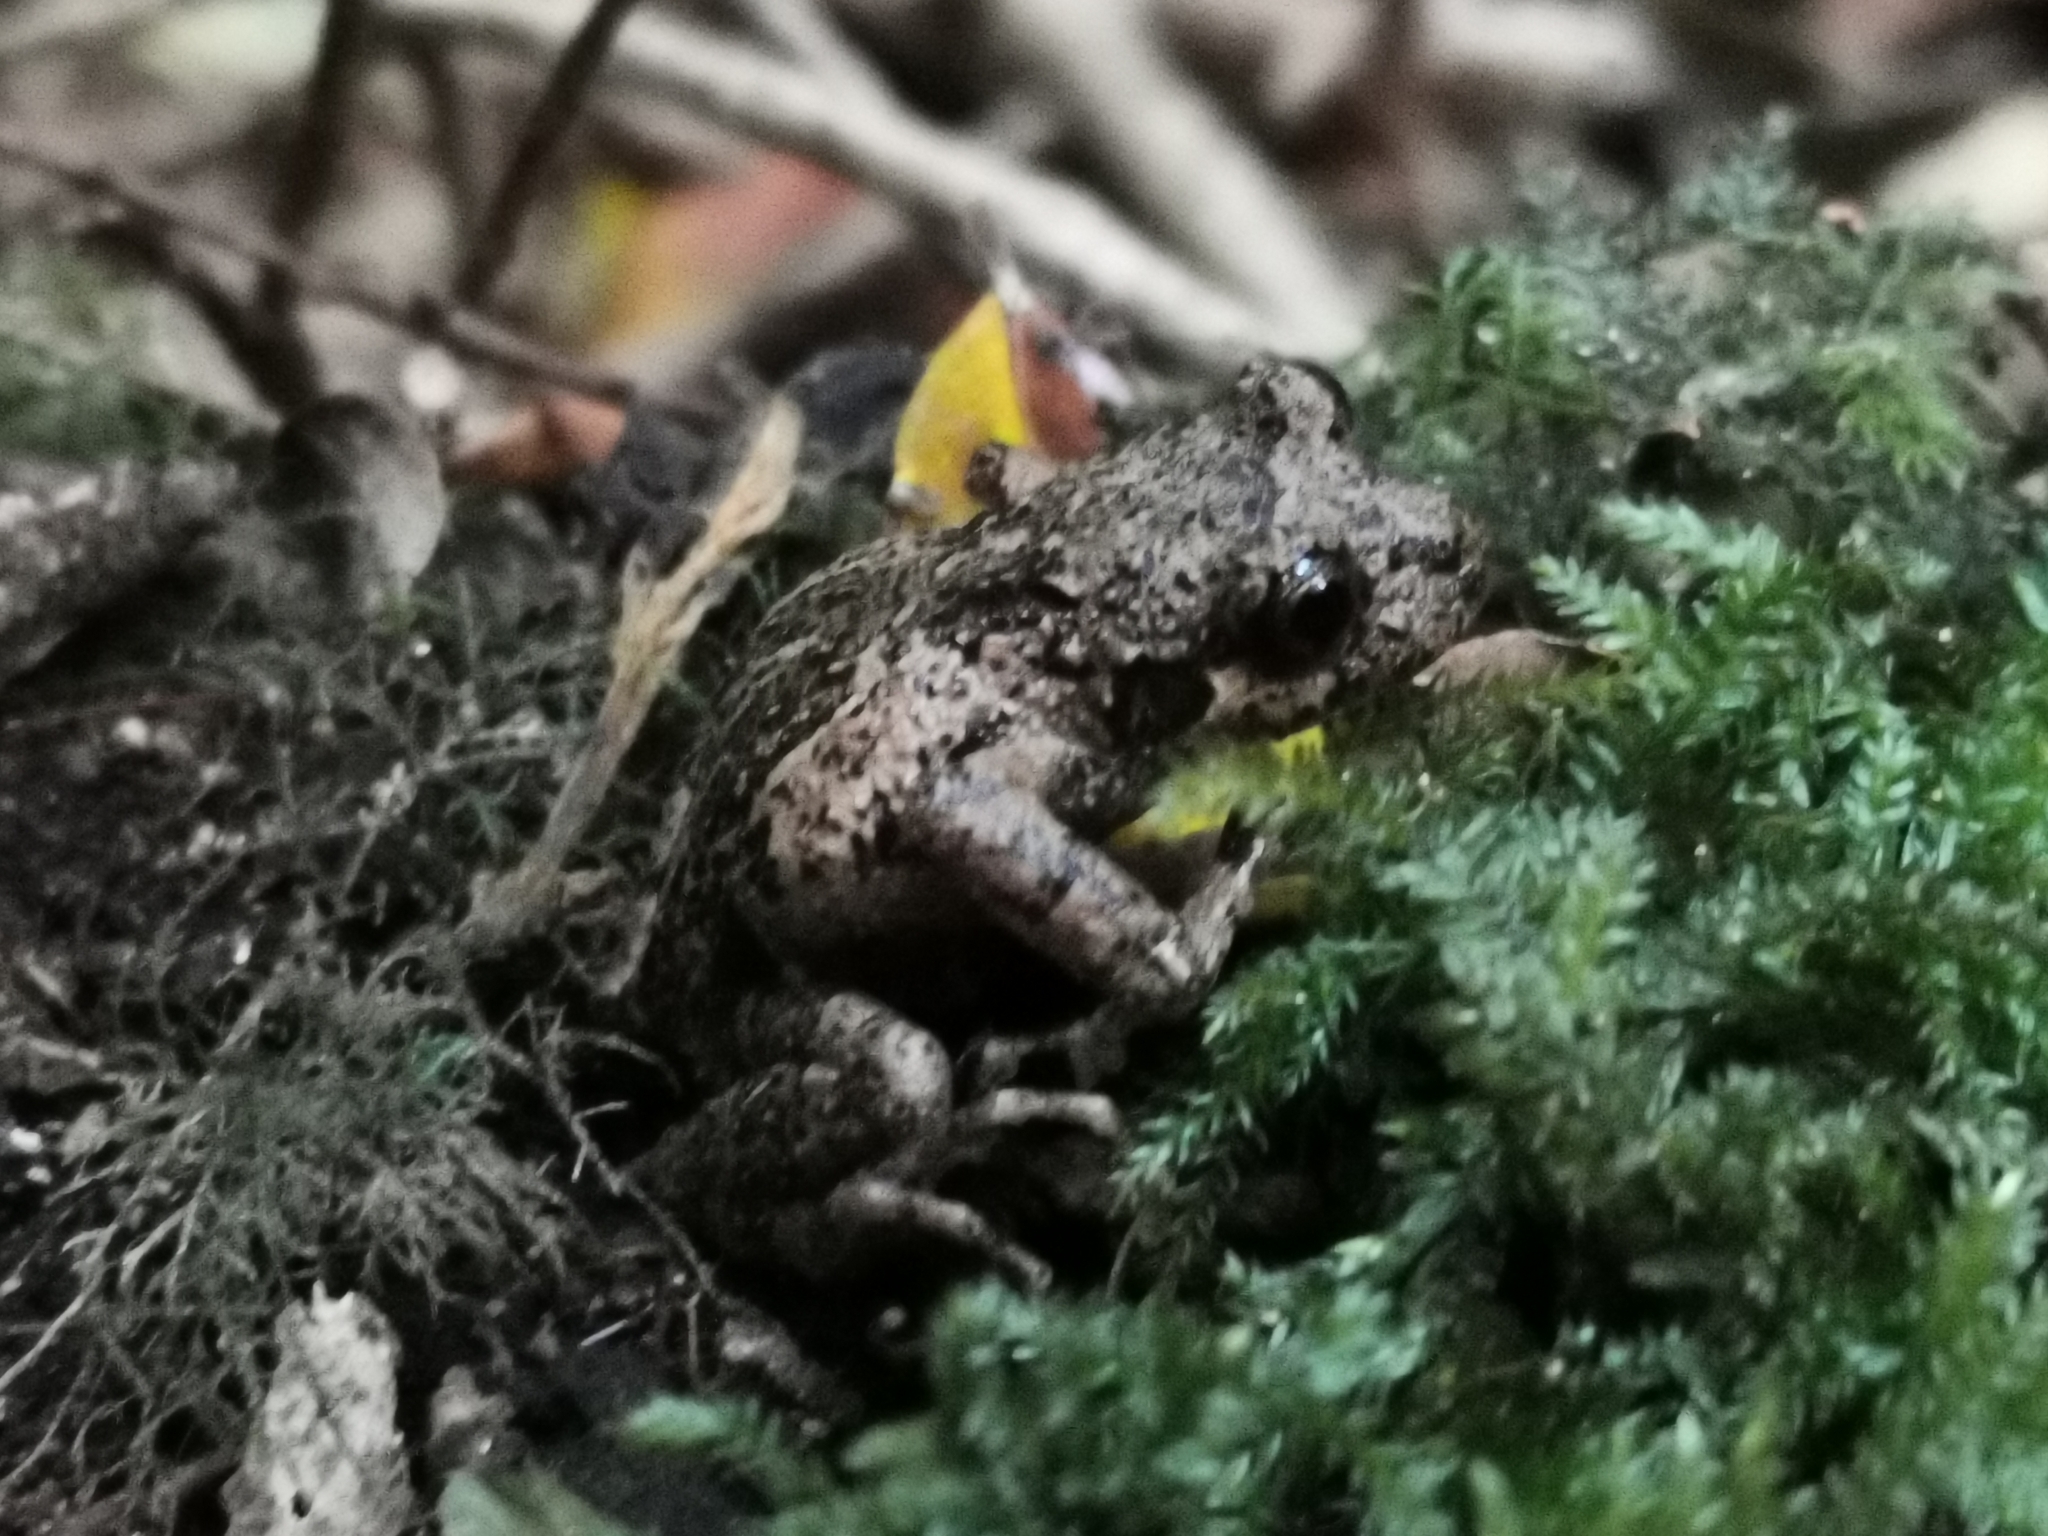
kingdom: Animalia
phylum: Chordata
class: Amphibia
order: Anura
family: Batrachylidae
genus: Batrachyla
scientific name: Batrachyla leptopus
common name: Gray wood frog
